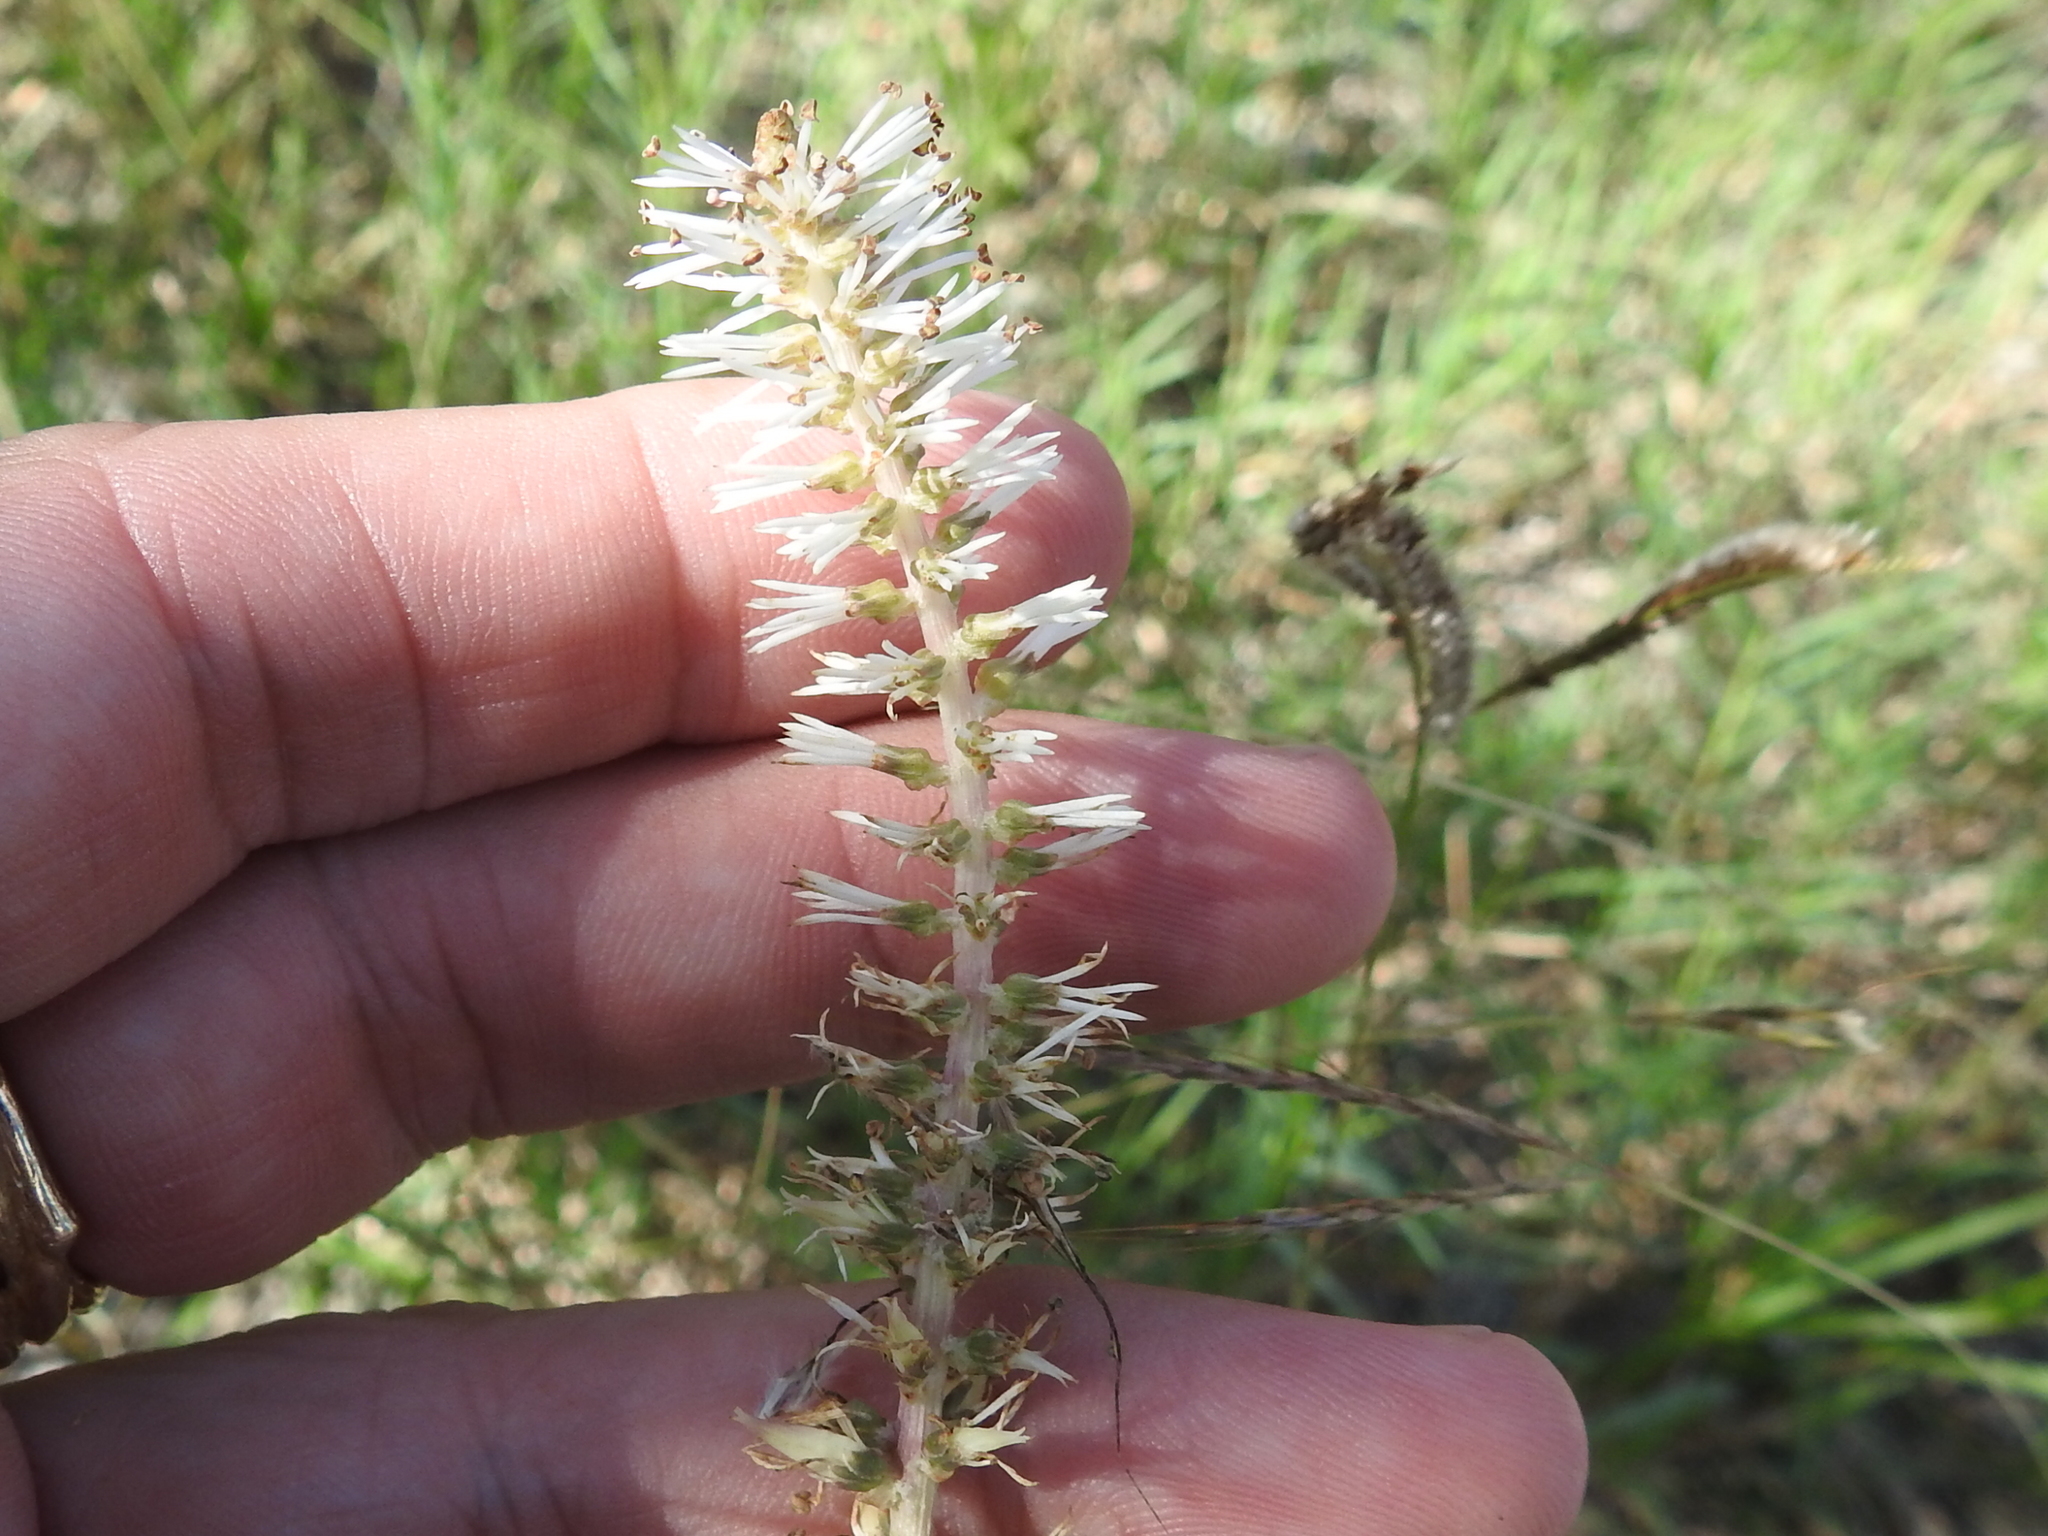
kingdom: Plantae
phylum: Tracheophyta
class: Liliopsida
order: Liliales
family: Melanthiaceae
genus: Schoenocaulon
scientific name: Schoenocaulon ghiesbreghtii
